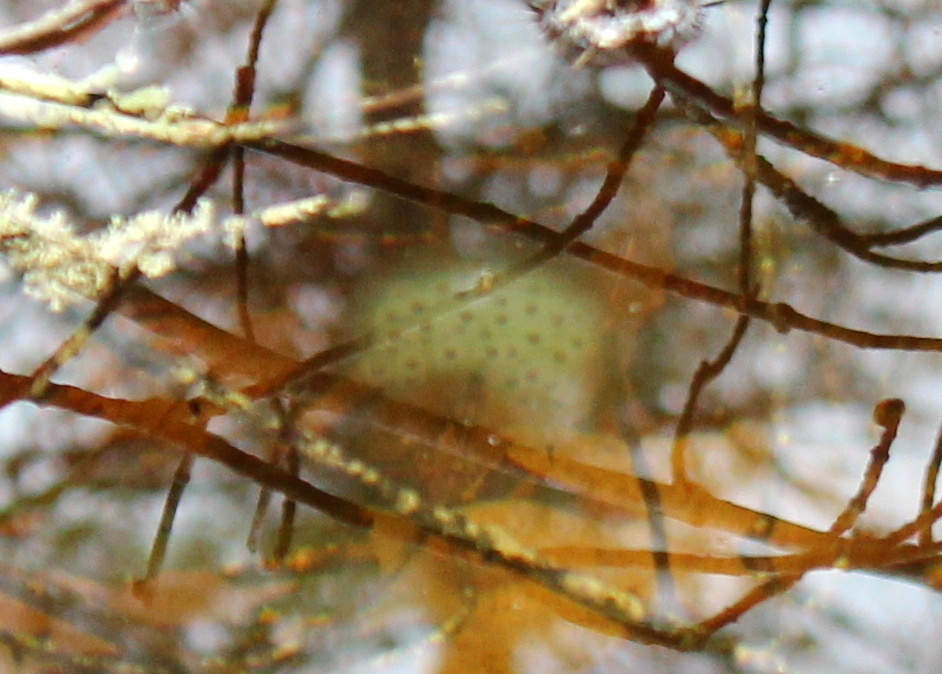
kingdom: Animalia
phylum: Chordata
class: Amphibia
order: Caudata
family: Ambystomatidae
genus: Ambystoma
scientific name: Ambystoma maculatum
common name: Spotted salamander
